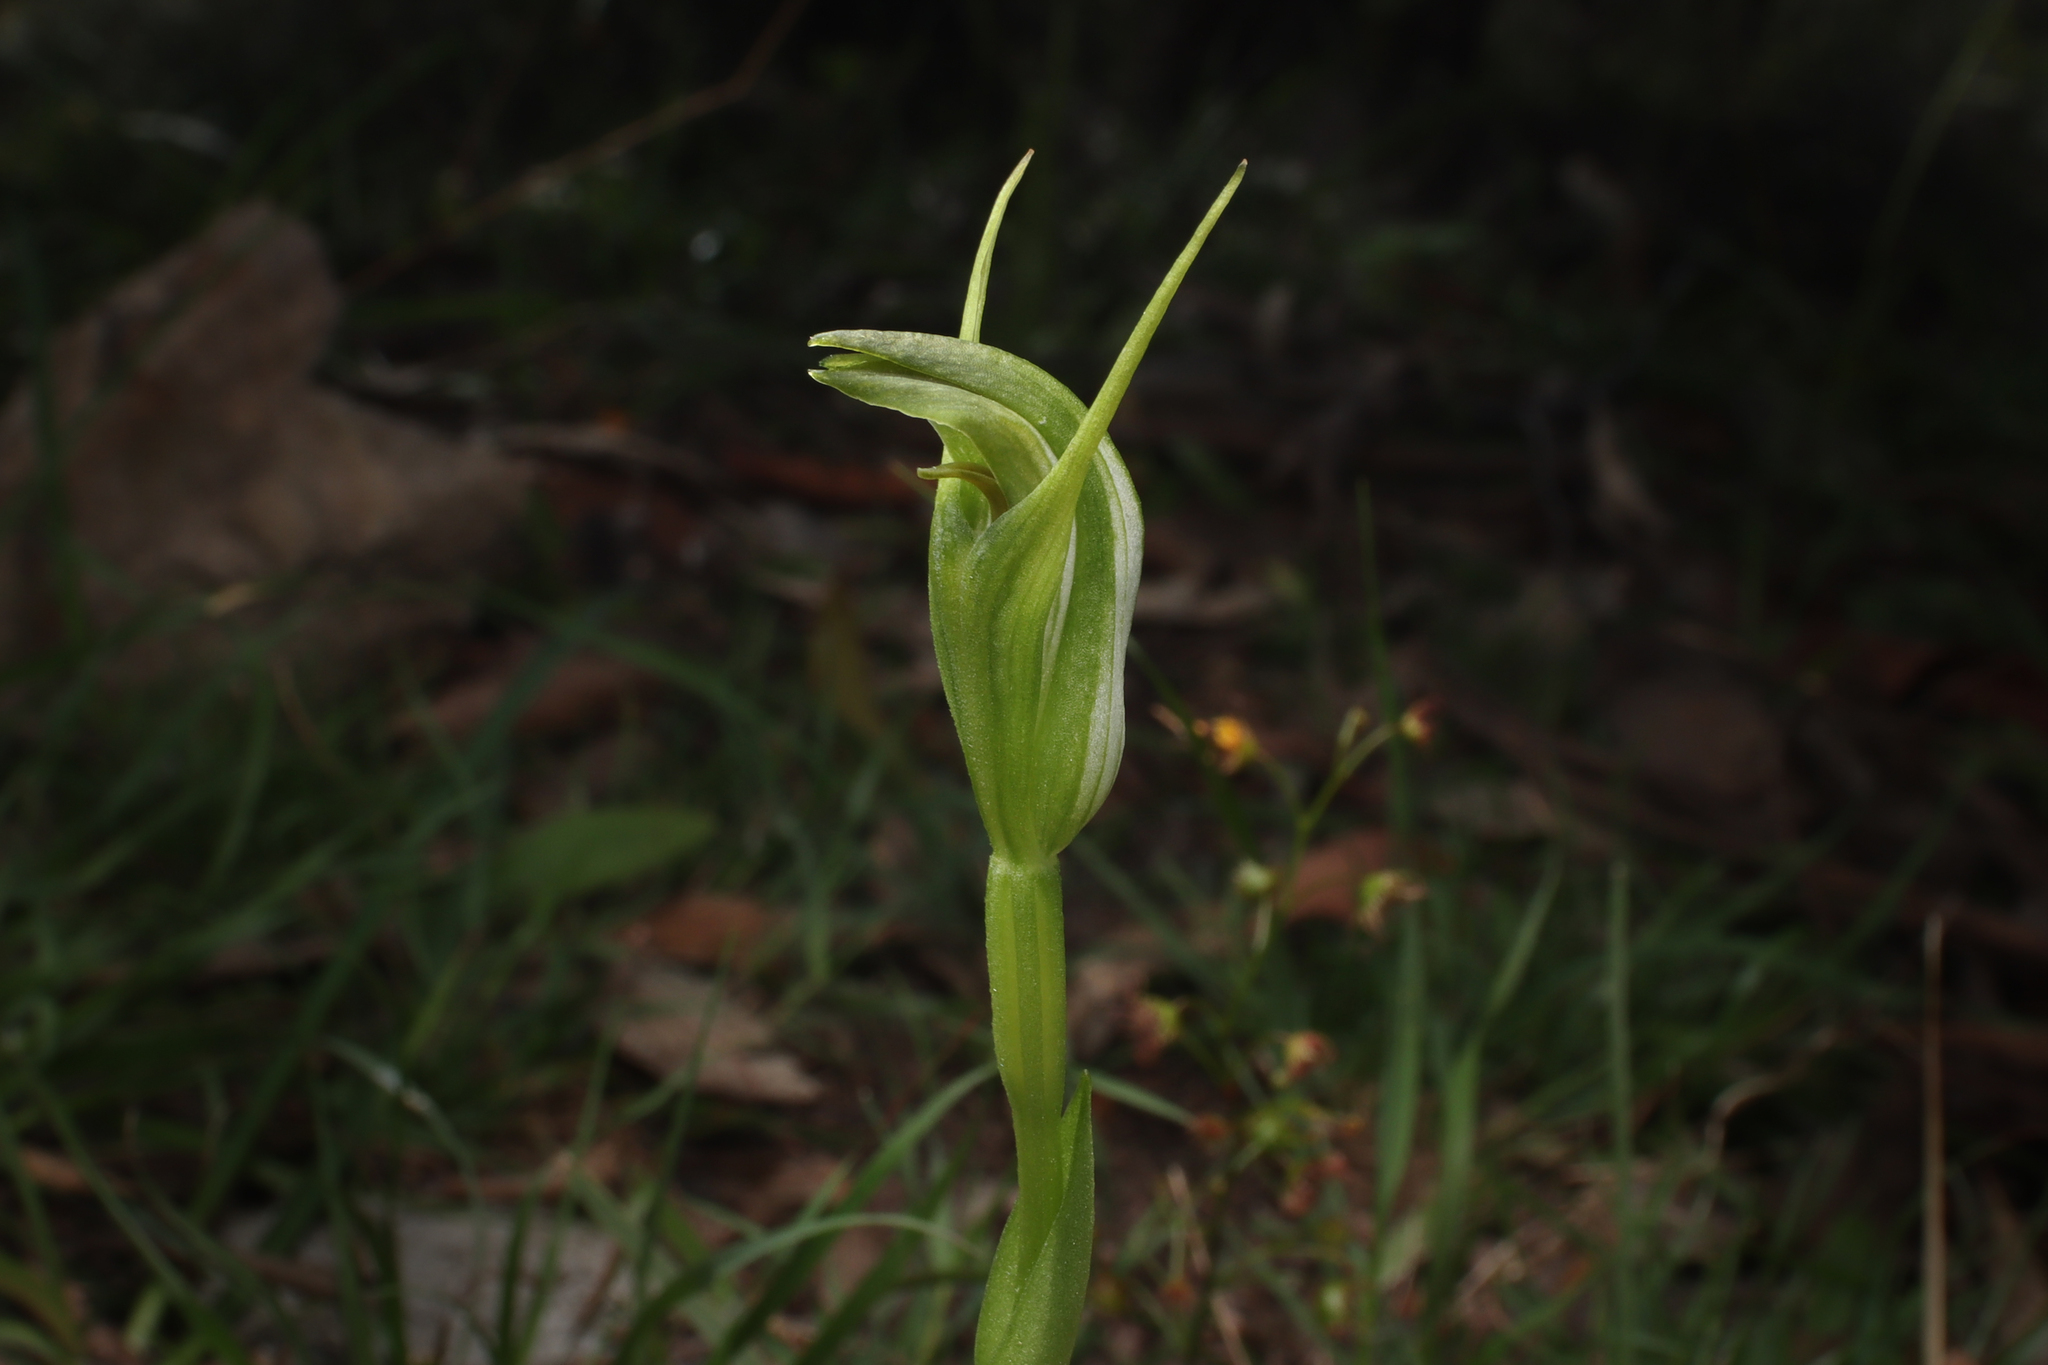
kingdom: Plantae
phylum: Tracheophyta
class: Liliopsida
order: Asparagales
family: Orchidaceae
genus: Pterostylis
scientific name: Pterostylis foliata
